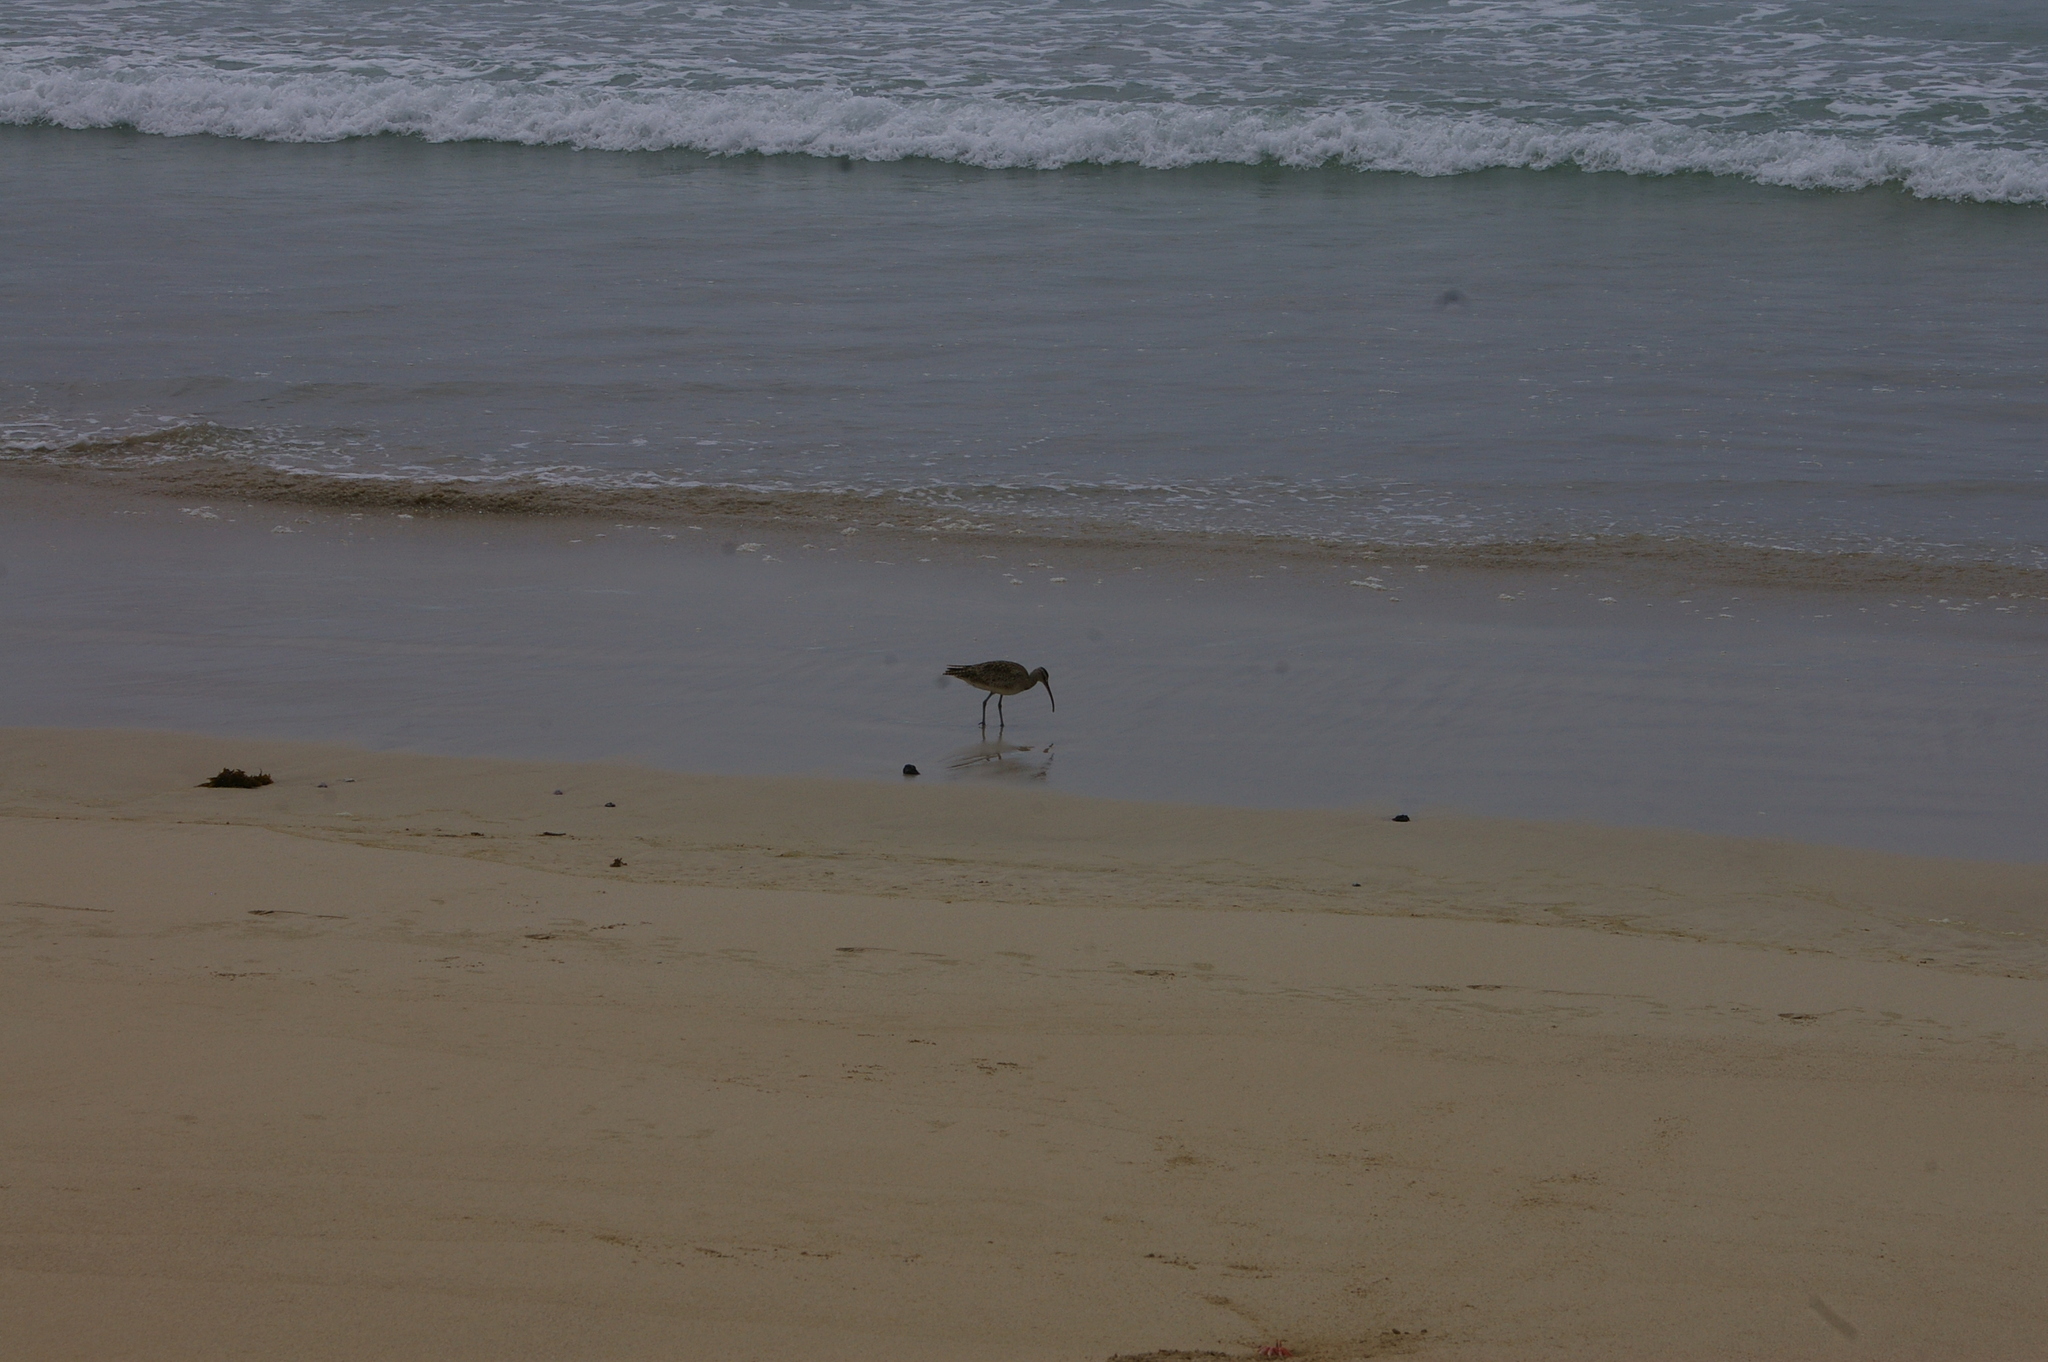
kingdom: Animalia
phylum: Chordata
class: Aves
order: Charadriiformes
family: Scolopacidae
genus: Numenius
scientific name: Numenius phaeopus
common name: Whimbrel
